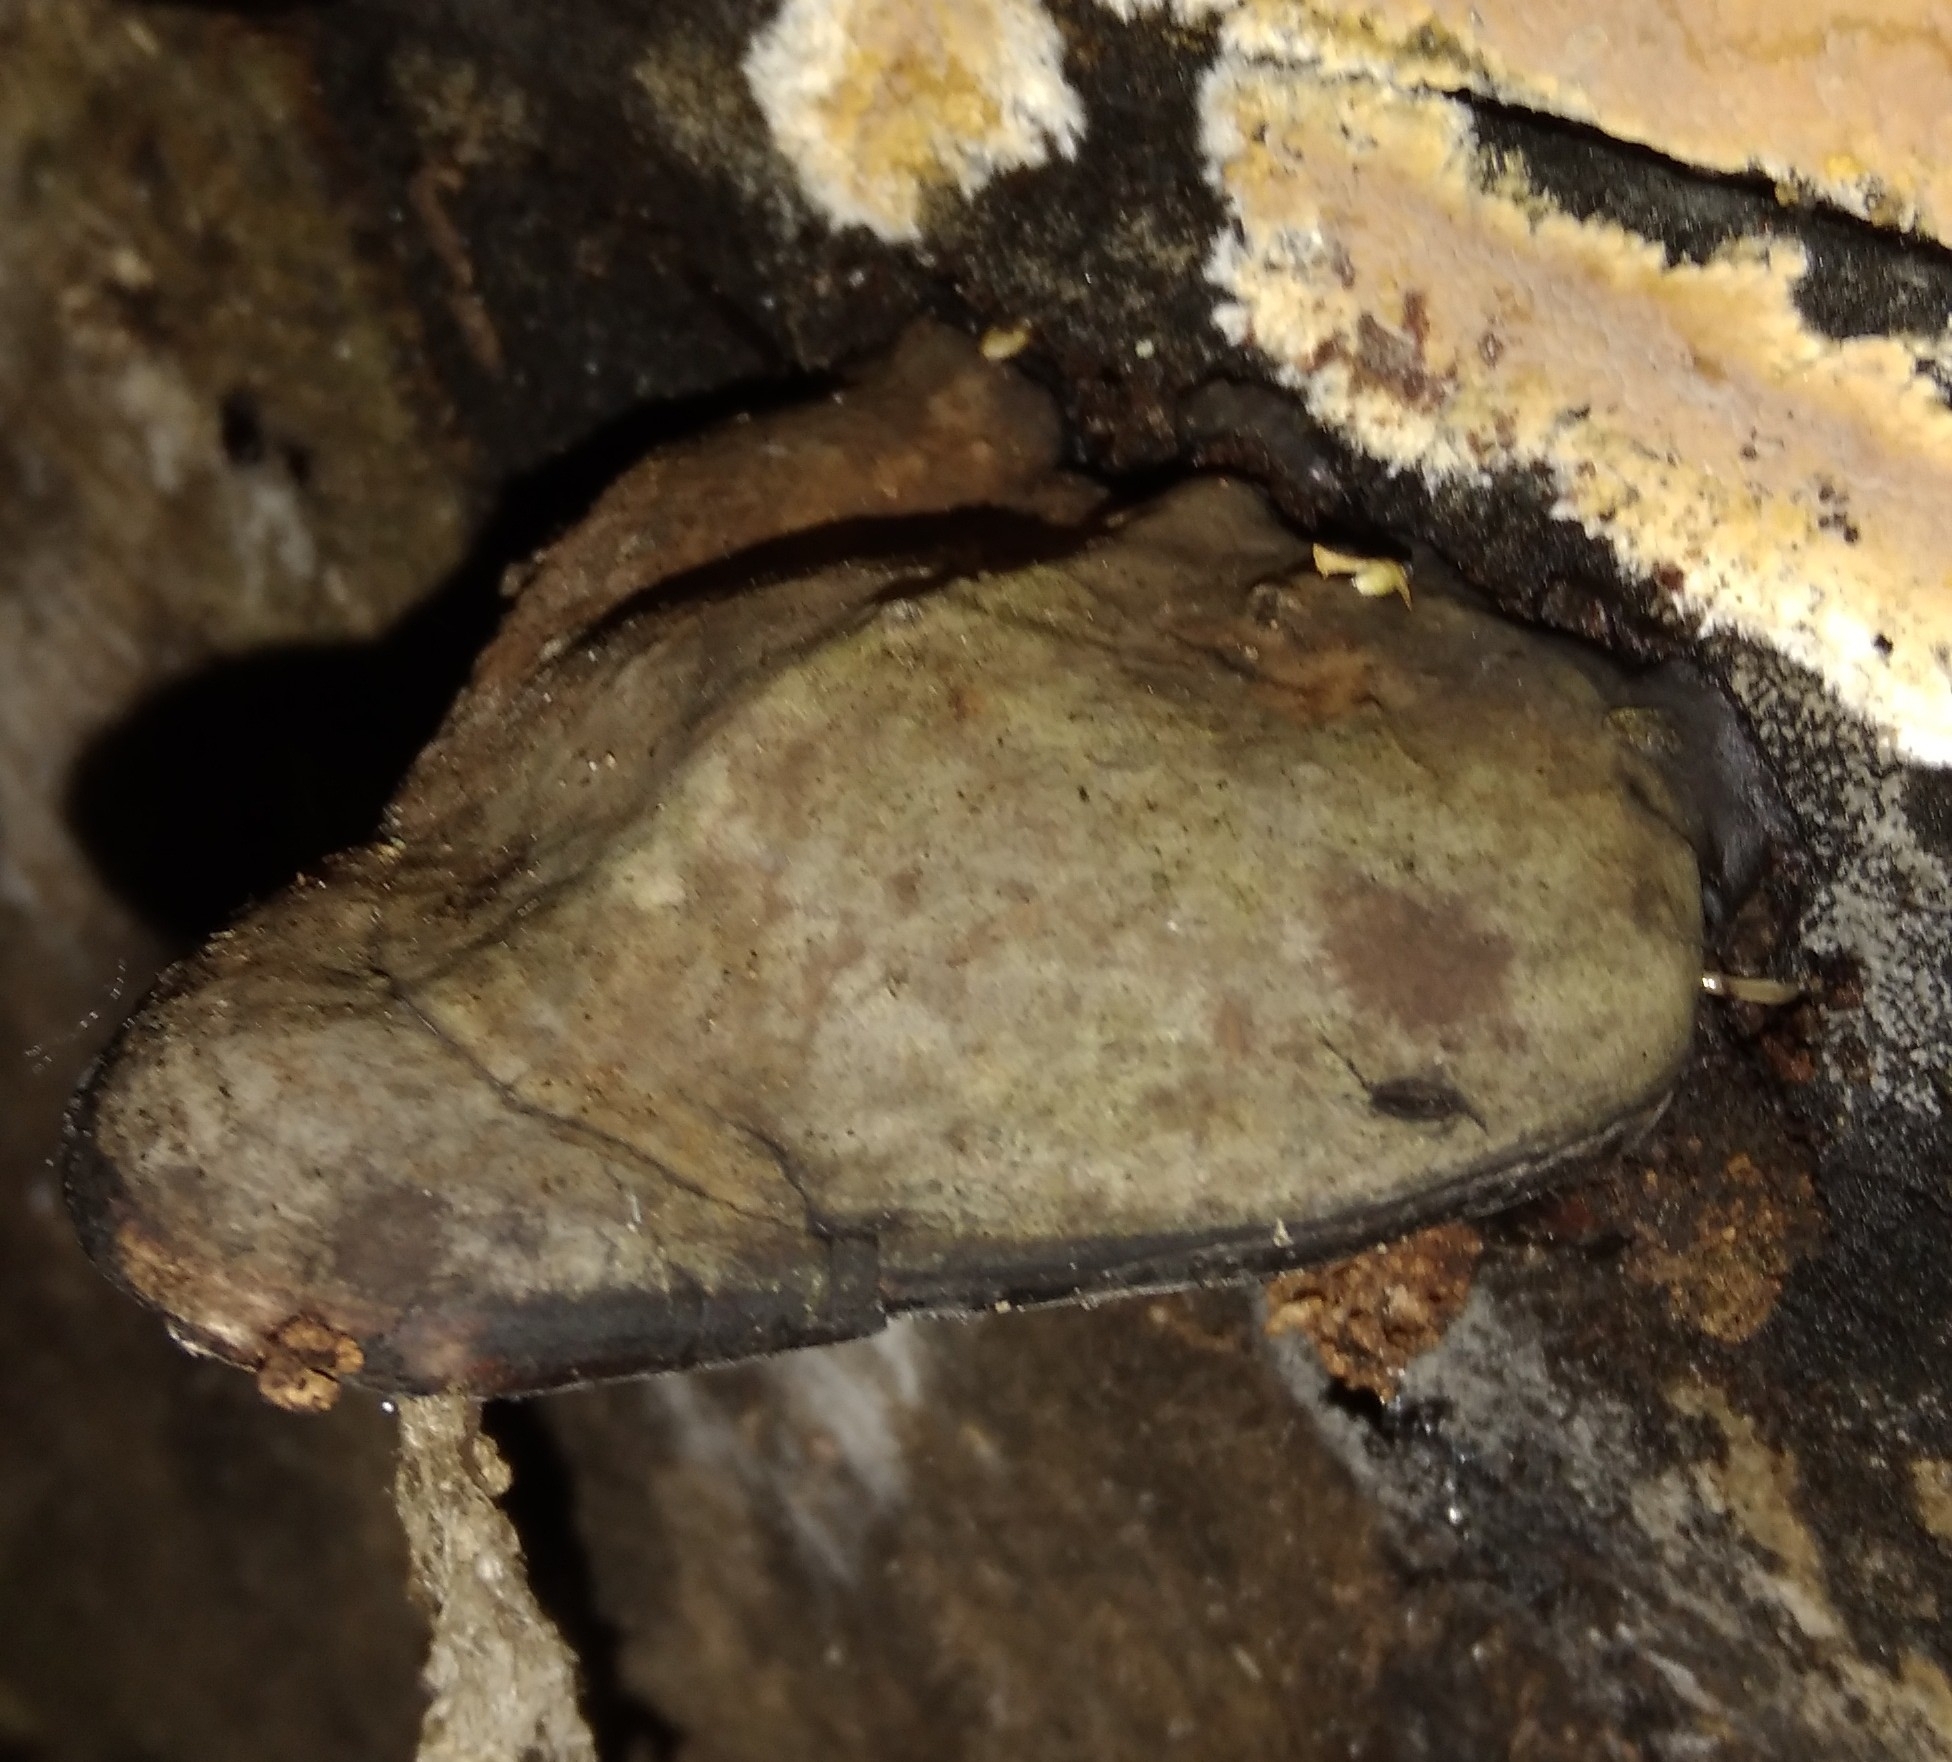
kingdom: Fungi
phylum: Basidiomycota
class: Agaricomycetes
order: Polyporales
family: Polyporaceae
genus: Ganoderma
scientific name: Ganoderma applanatum
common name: Artist's bracket
